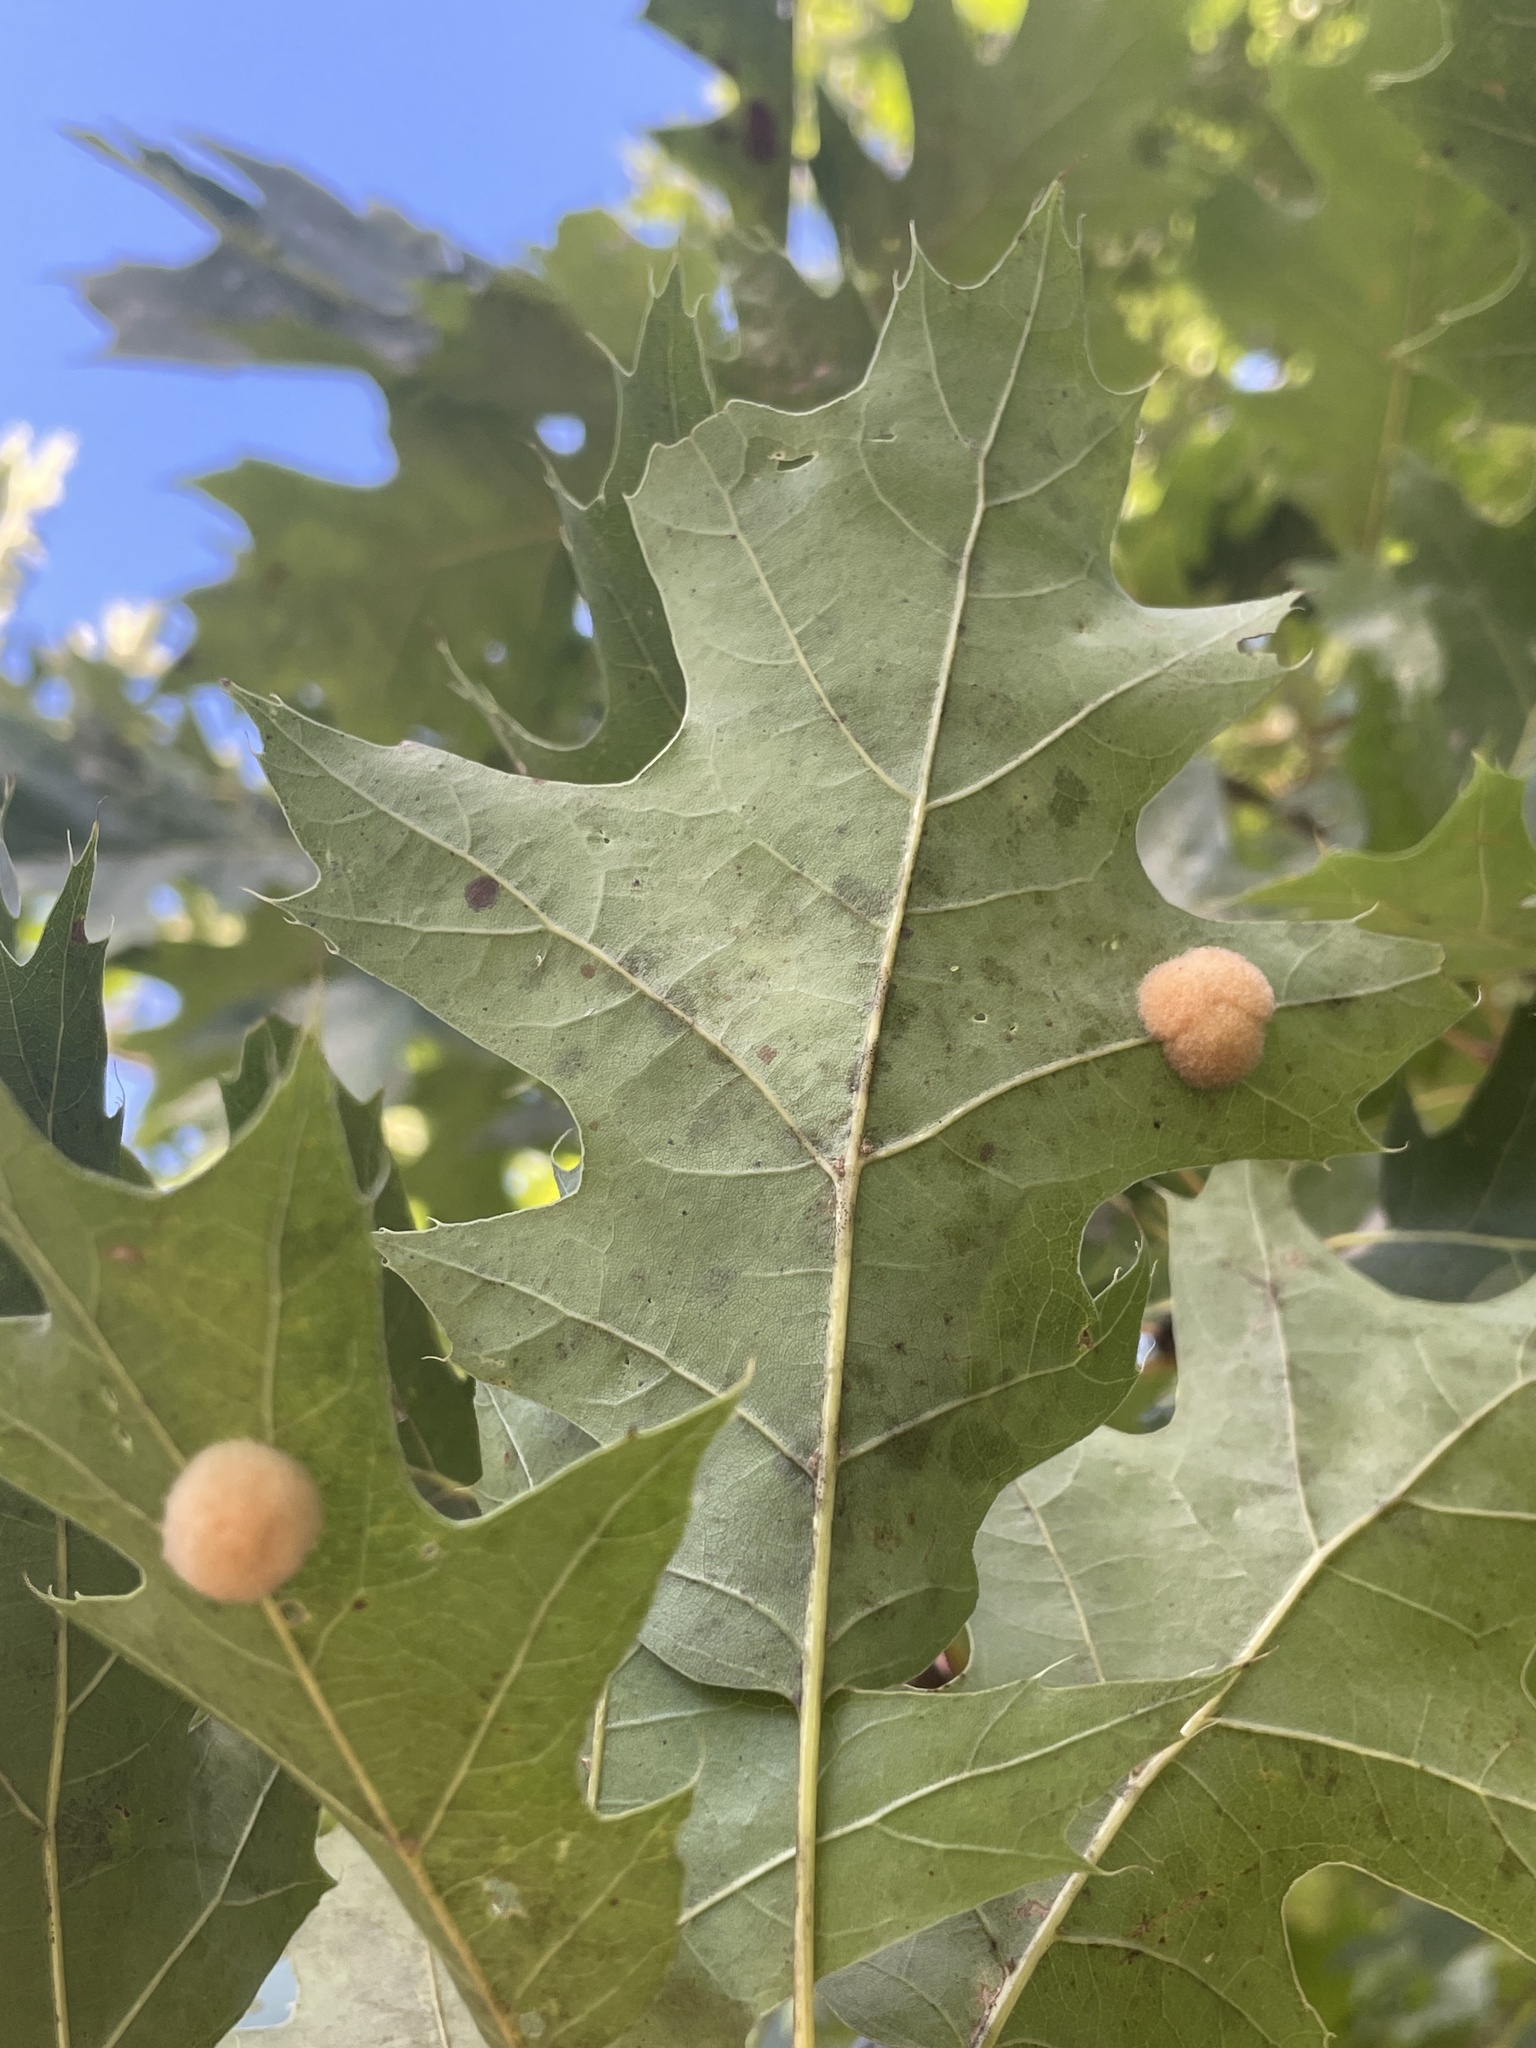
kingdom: Animalia
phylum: Arthropoda
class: Insecta
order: Hymenoptera
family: Cynipidae
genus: Callirhytis
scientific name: Callirhytis
